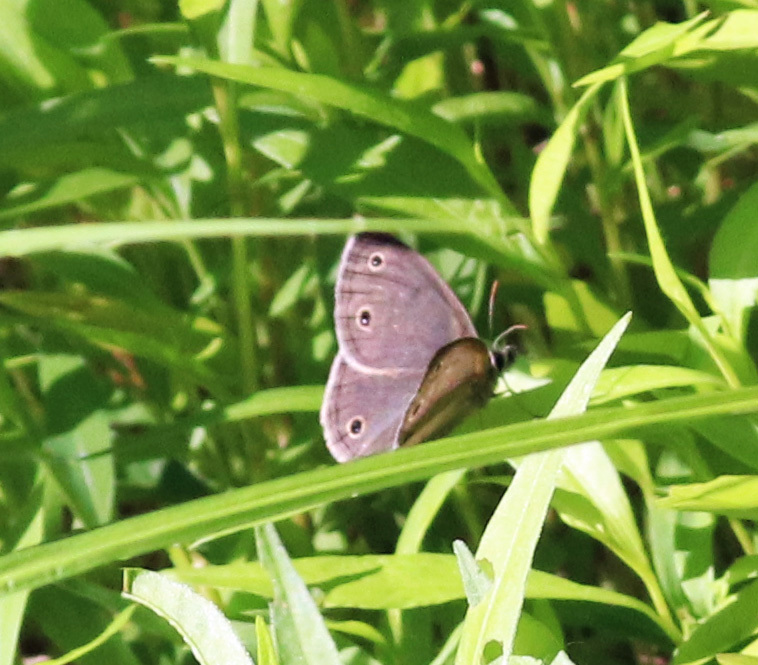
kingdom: Animalia
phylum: Arthropoda
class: Insecta
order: Lepidoptera
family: Nymphalidae
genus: Euptychia
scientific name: Euptychia cymela
